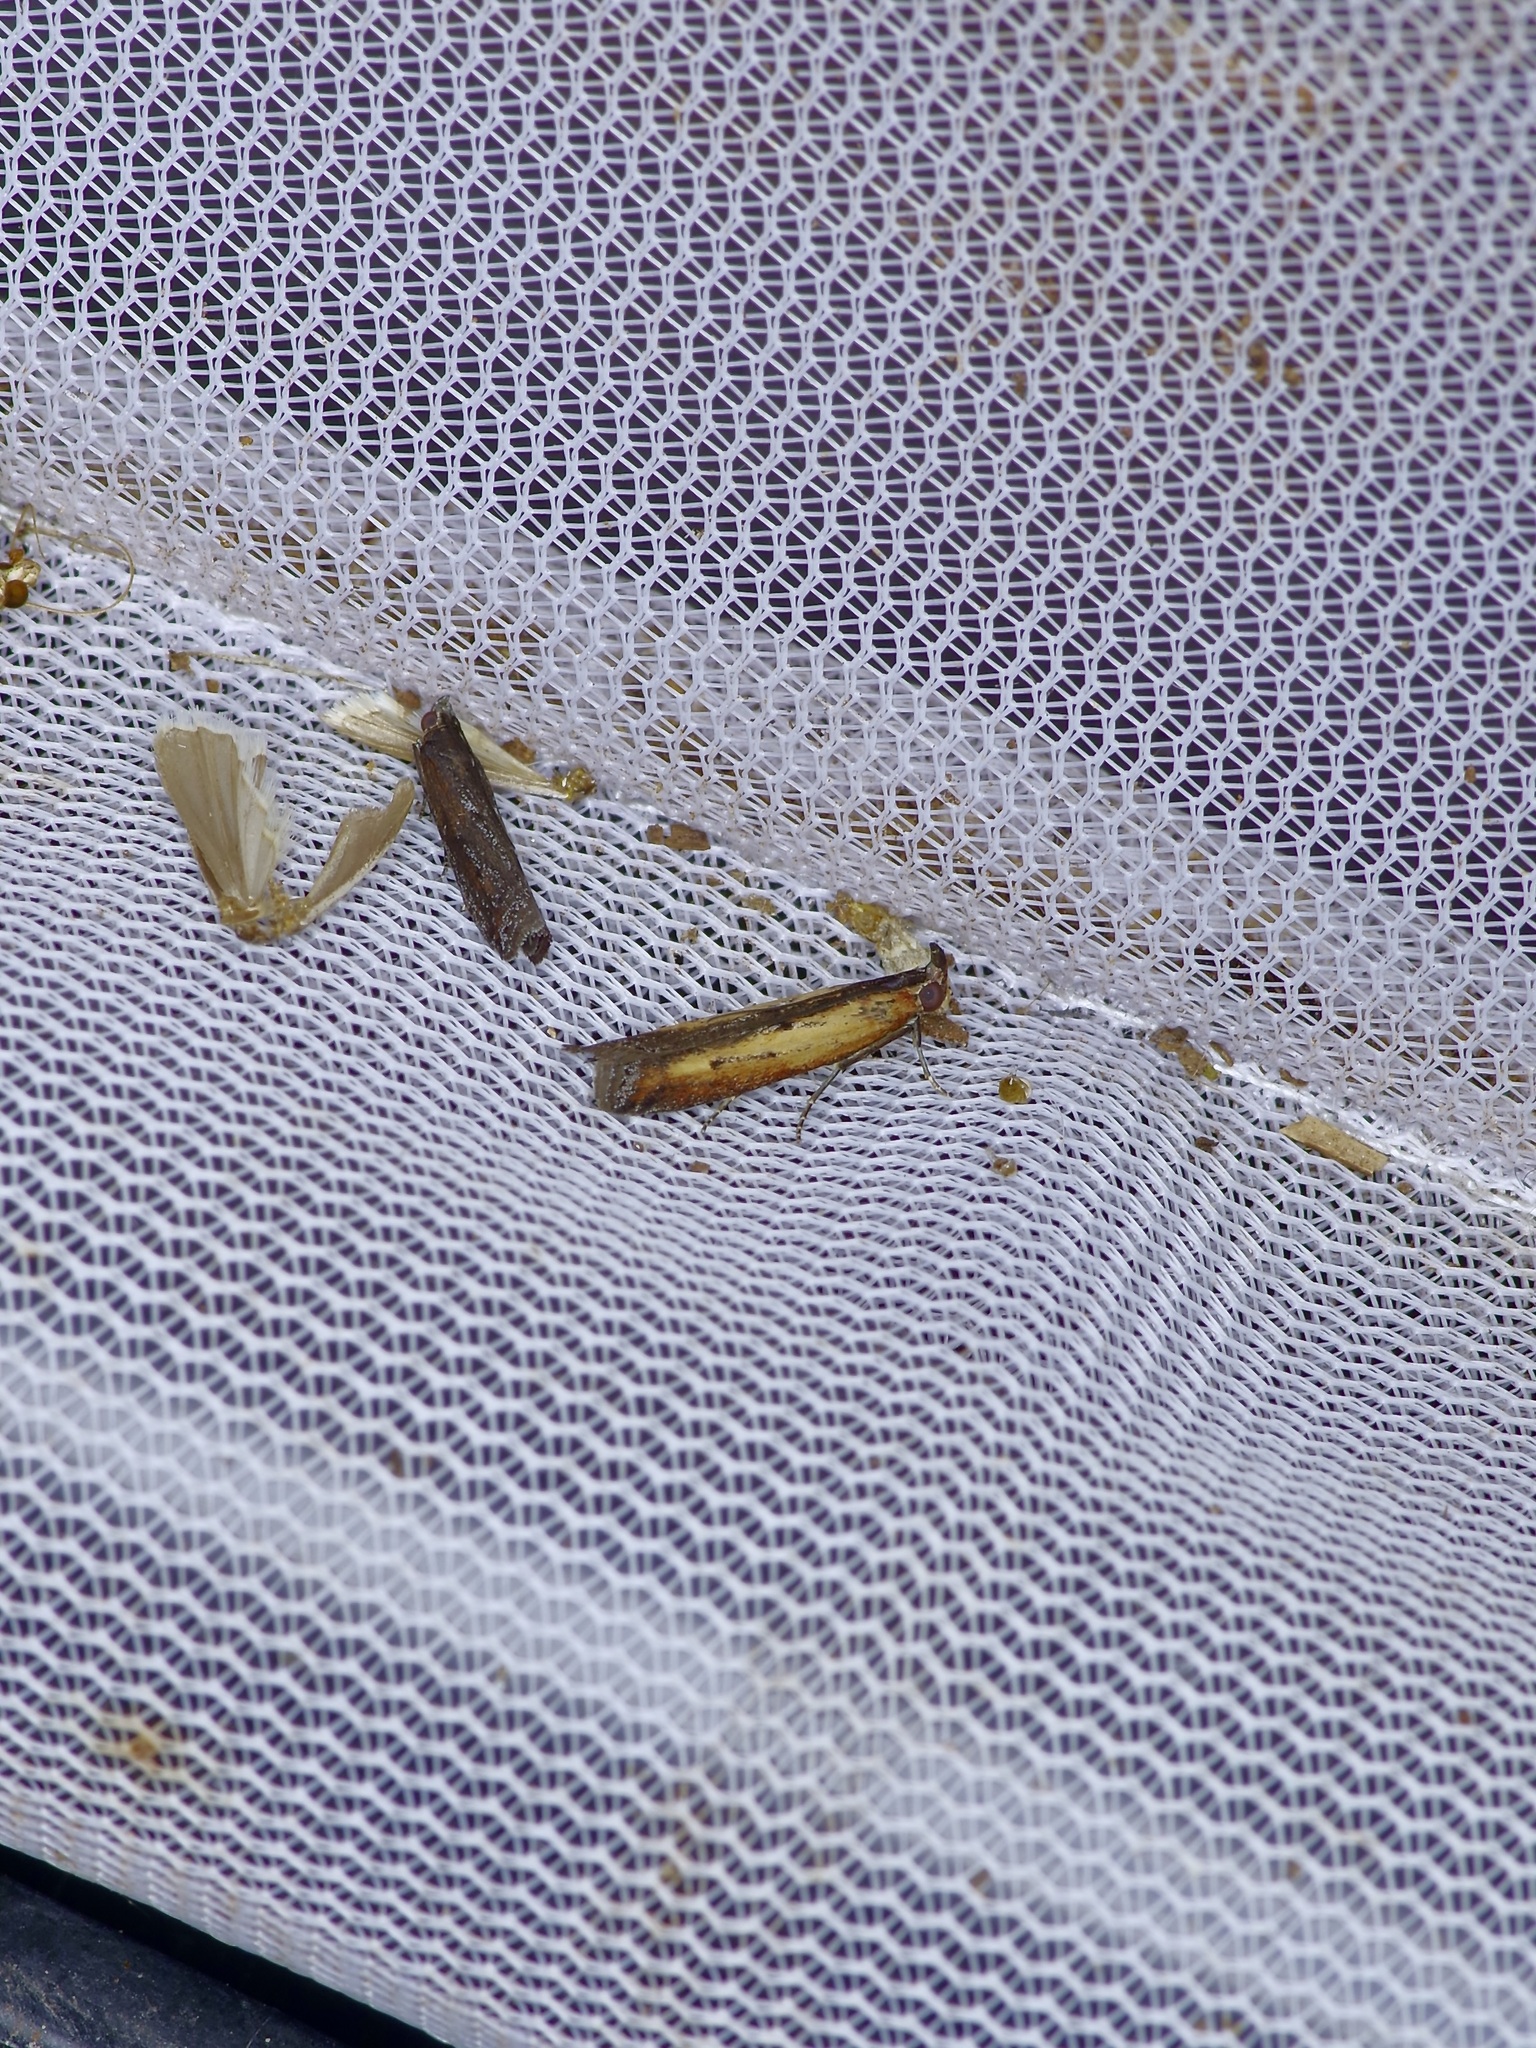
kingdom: Animalia
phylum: Arthropoda
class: Insecta
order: Lepidoptera
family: Pyralidae
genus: Elasmopalpus
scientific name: Elasmopalpus lignosella
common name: Lesser cornstalk borer
